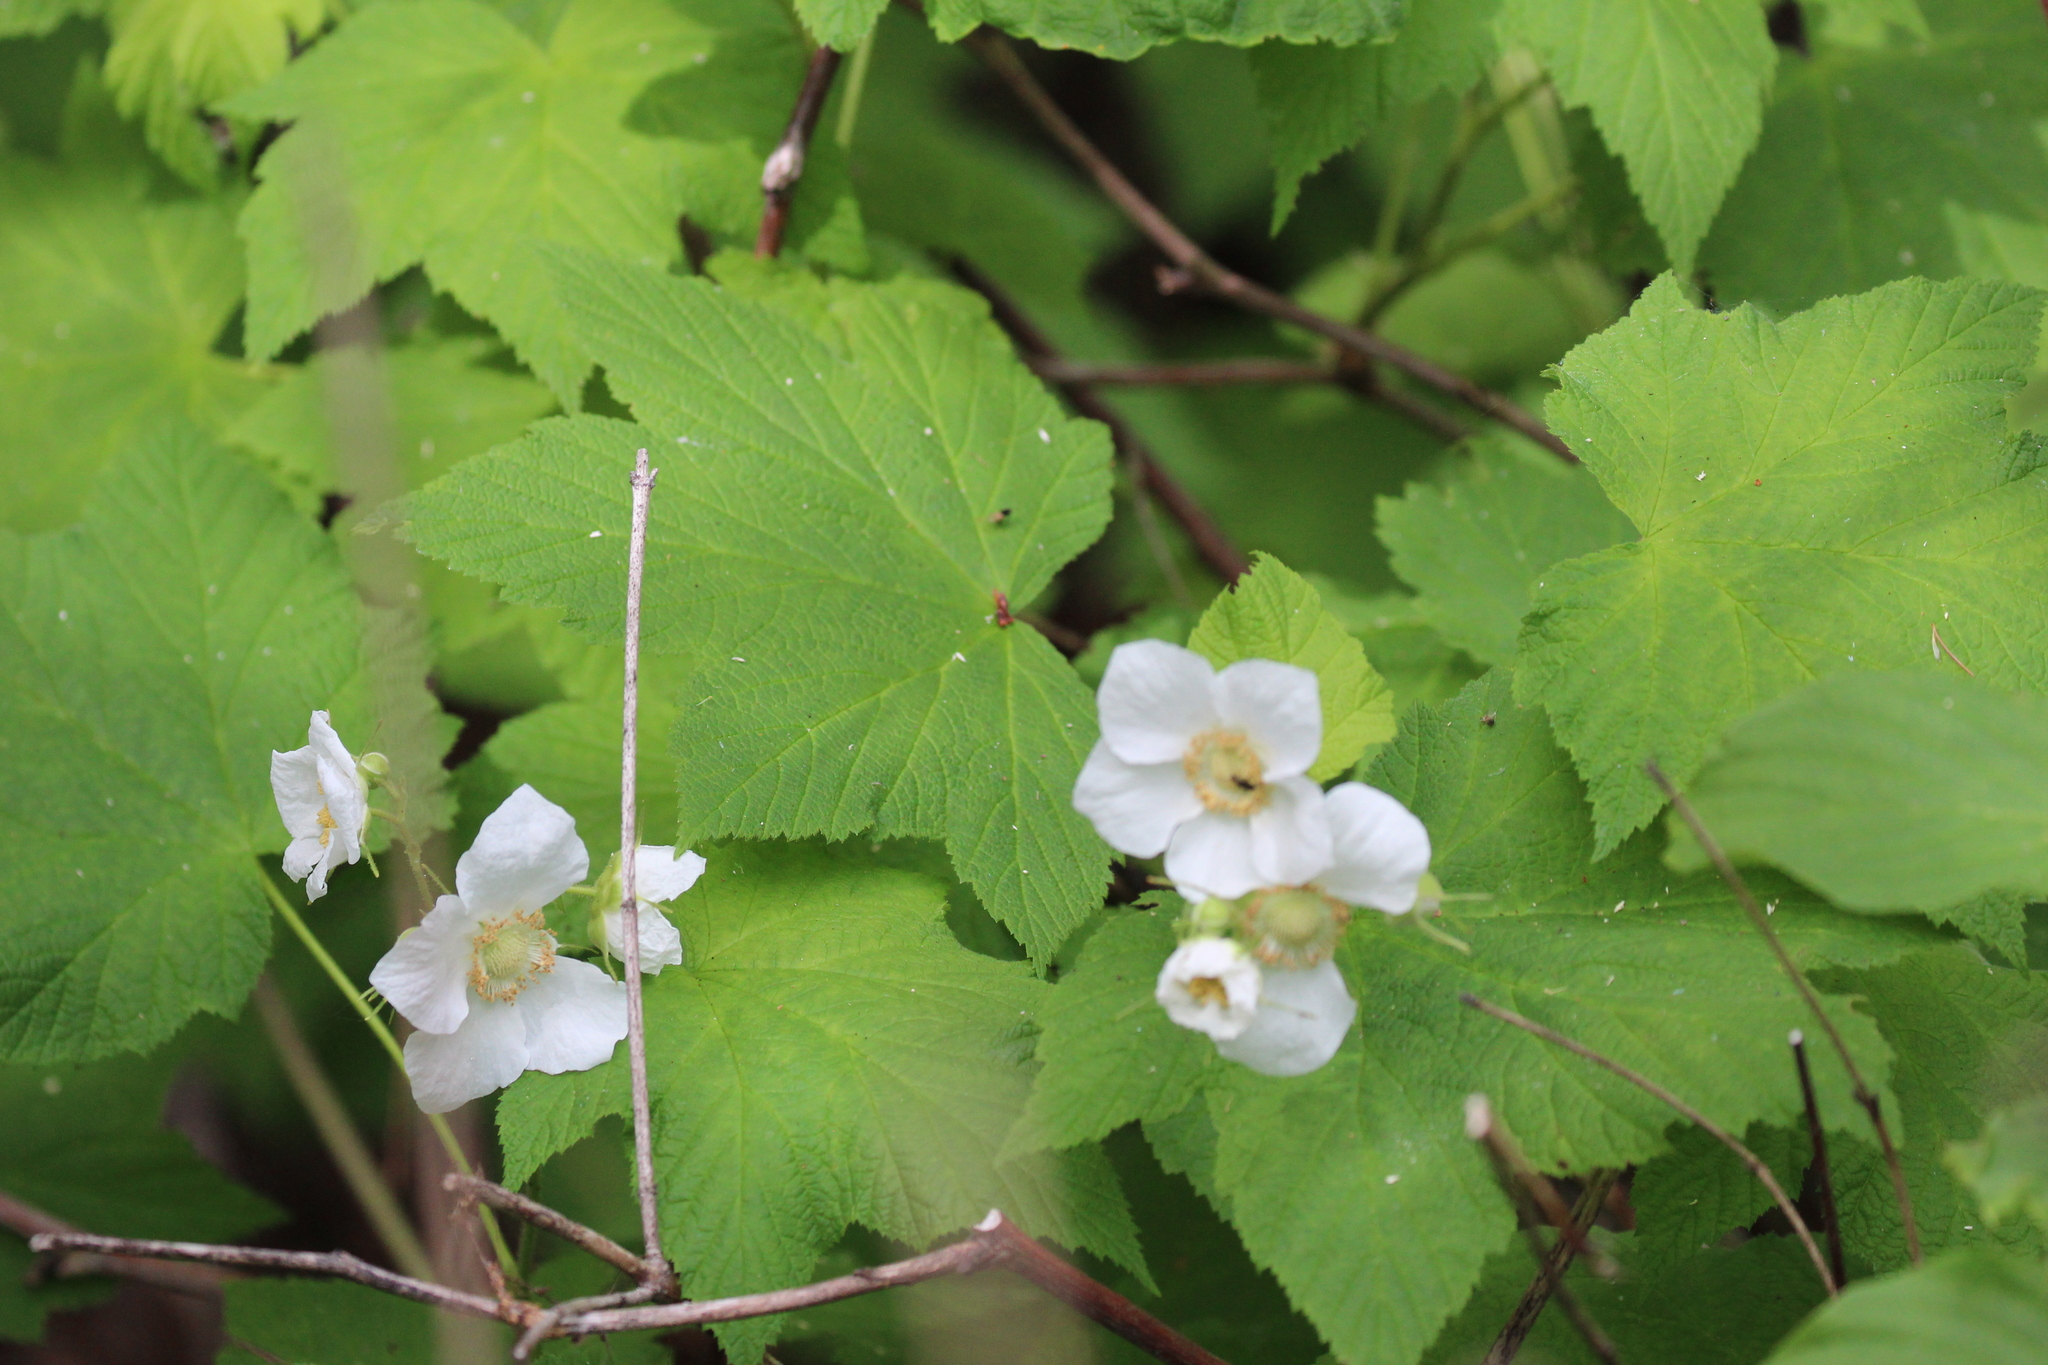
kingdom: Plantae
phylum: Tracheophyta
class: Magnoliopsida
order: Rosales
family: Rosaceae
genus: Rubus
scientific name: Rubus parviflorus
